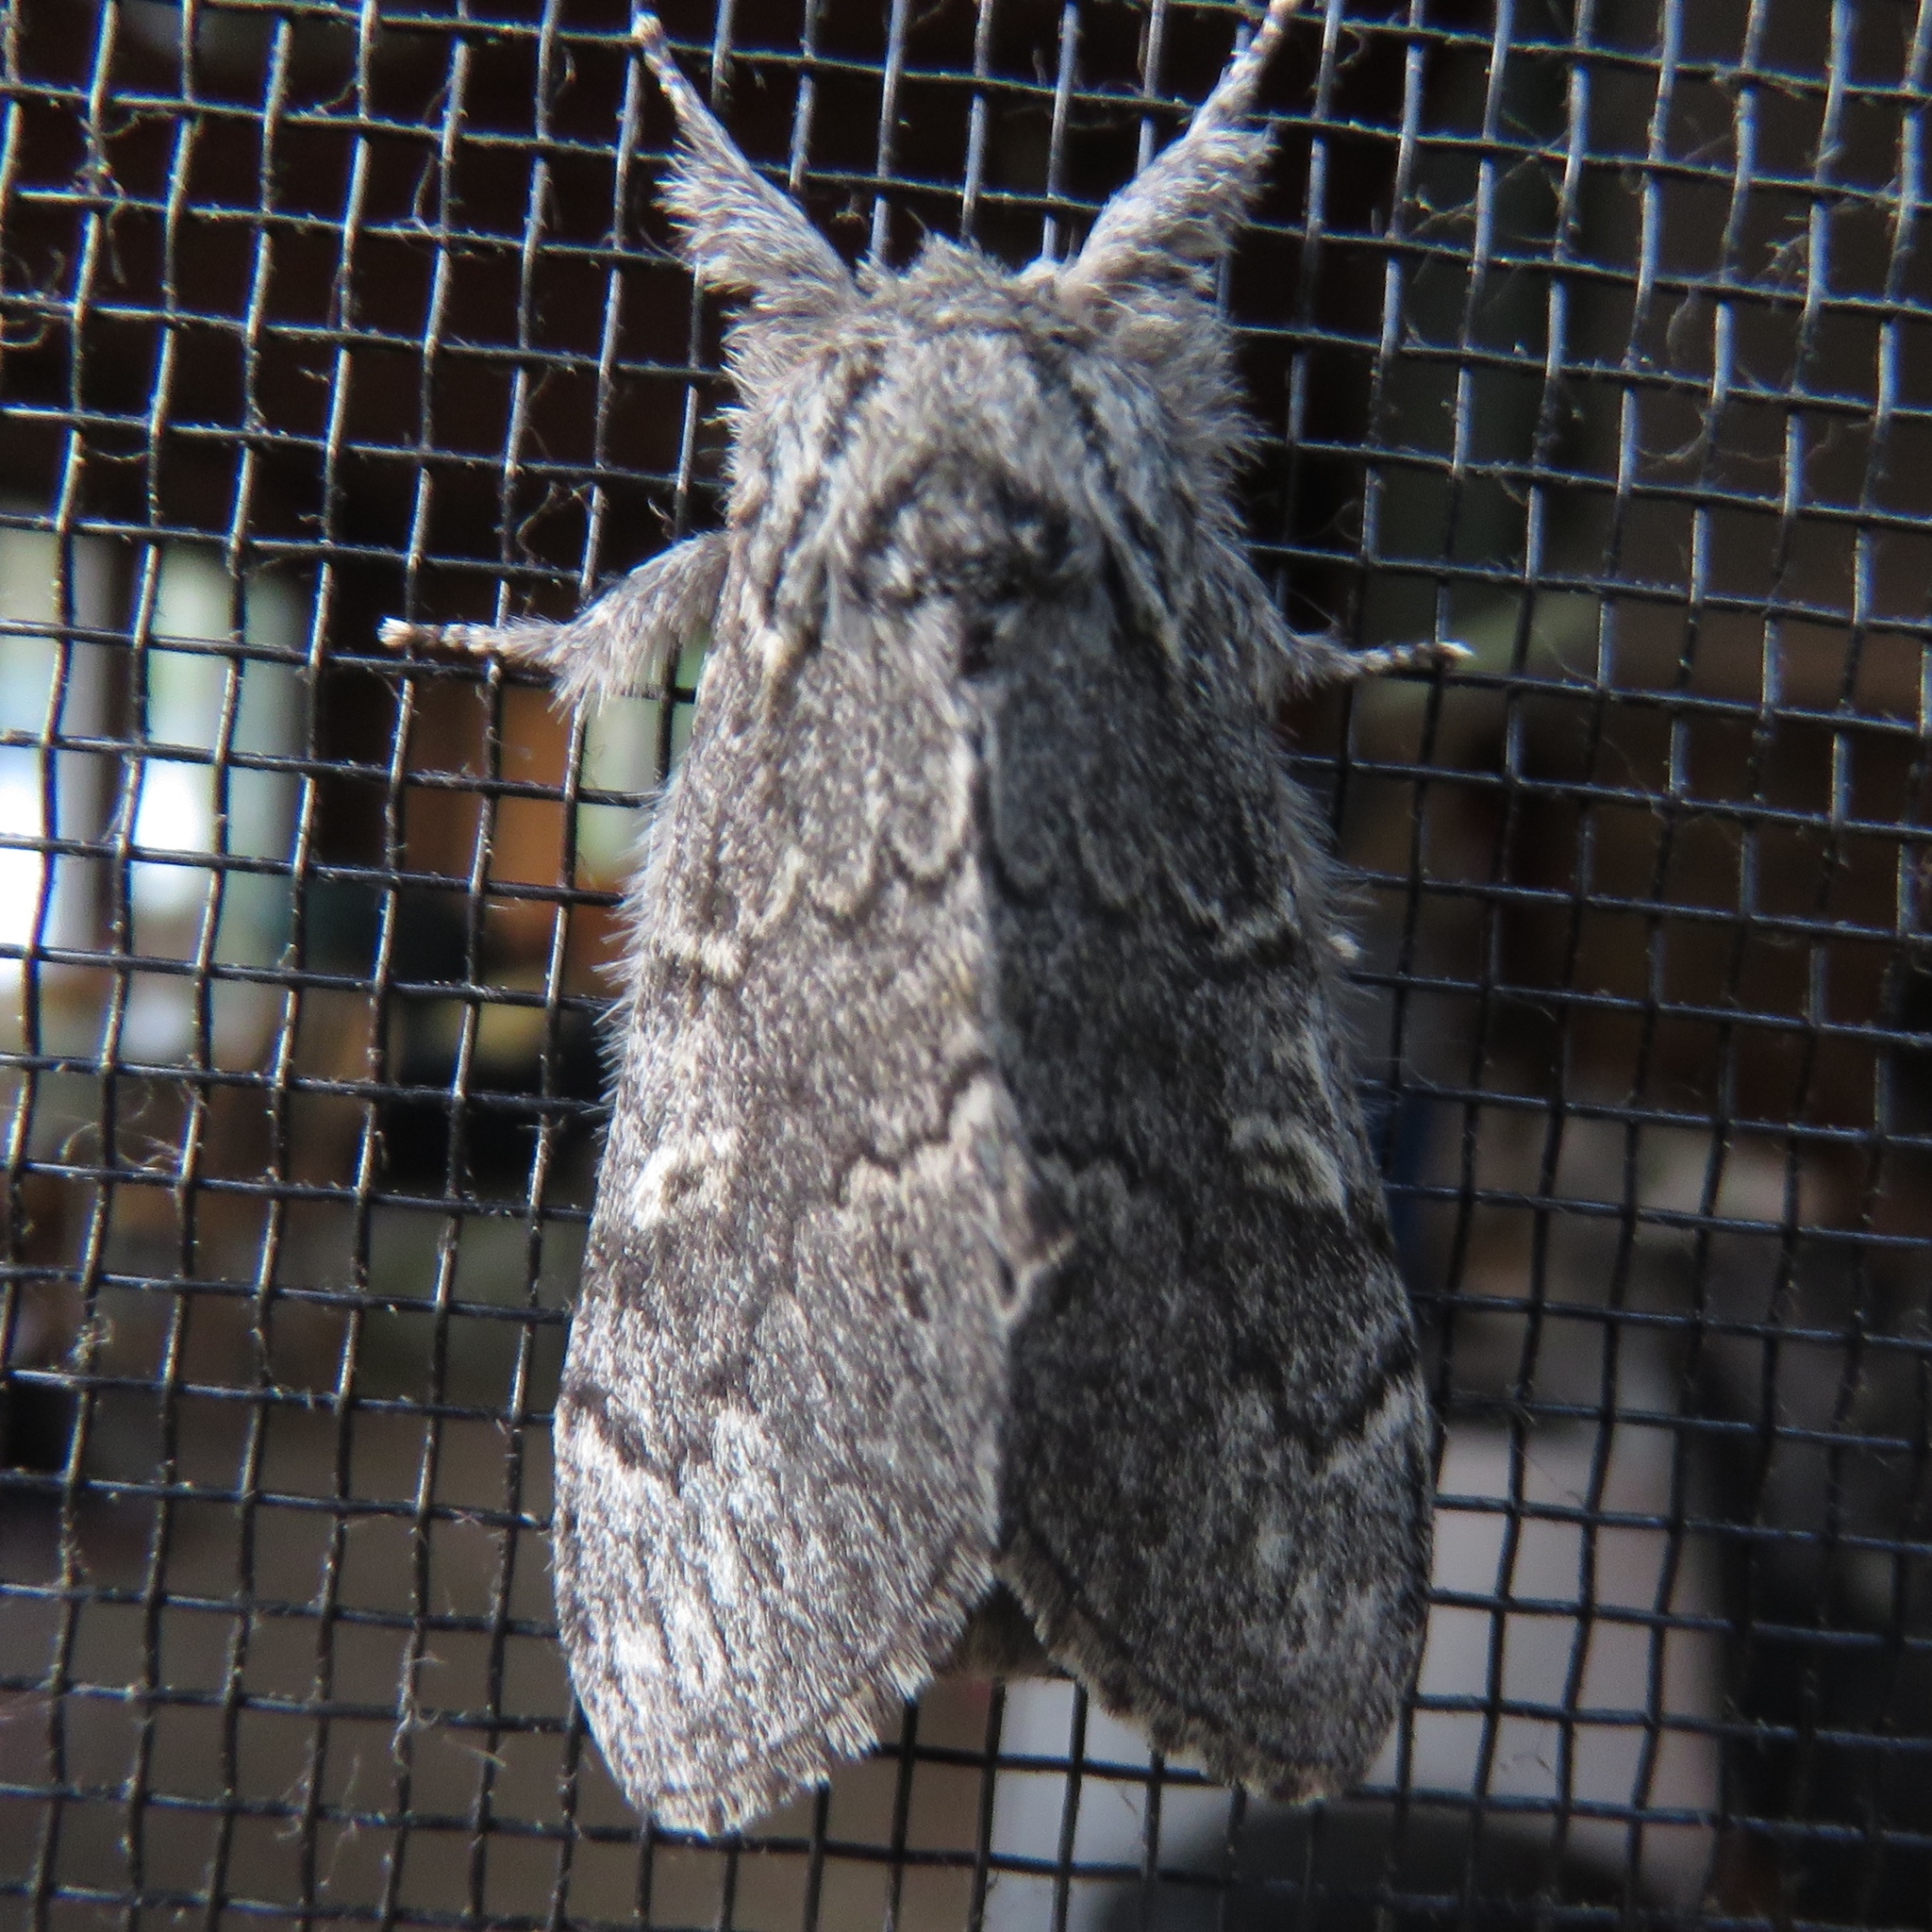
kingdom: Animalia
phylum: Arthropoda
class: Insecta
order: Lepidoptera
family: Notodontidae
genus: Notodonta
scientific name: Notodonta torva
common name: Large dark prominent
